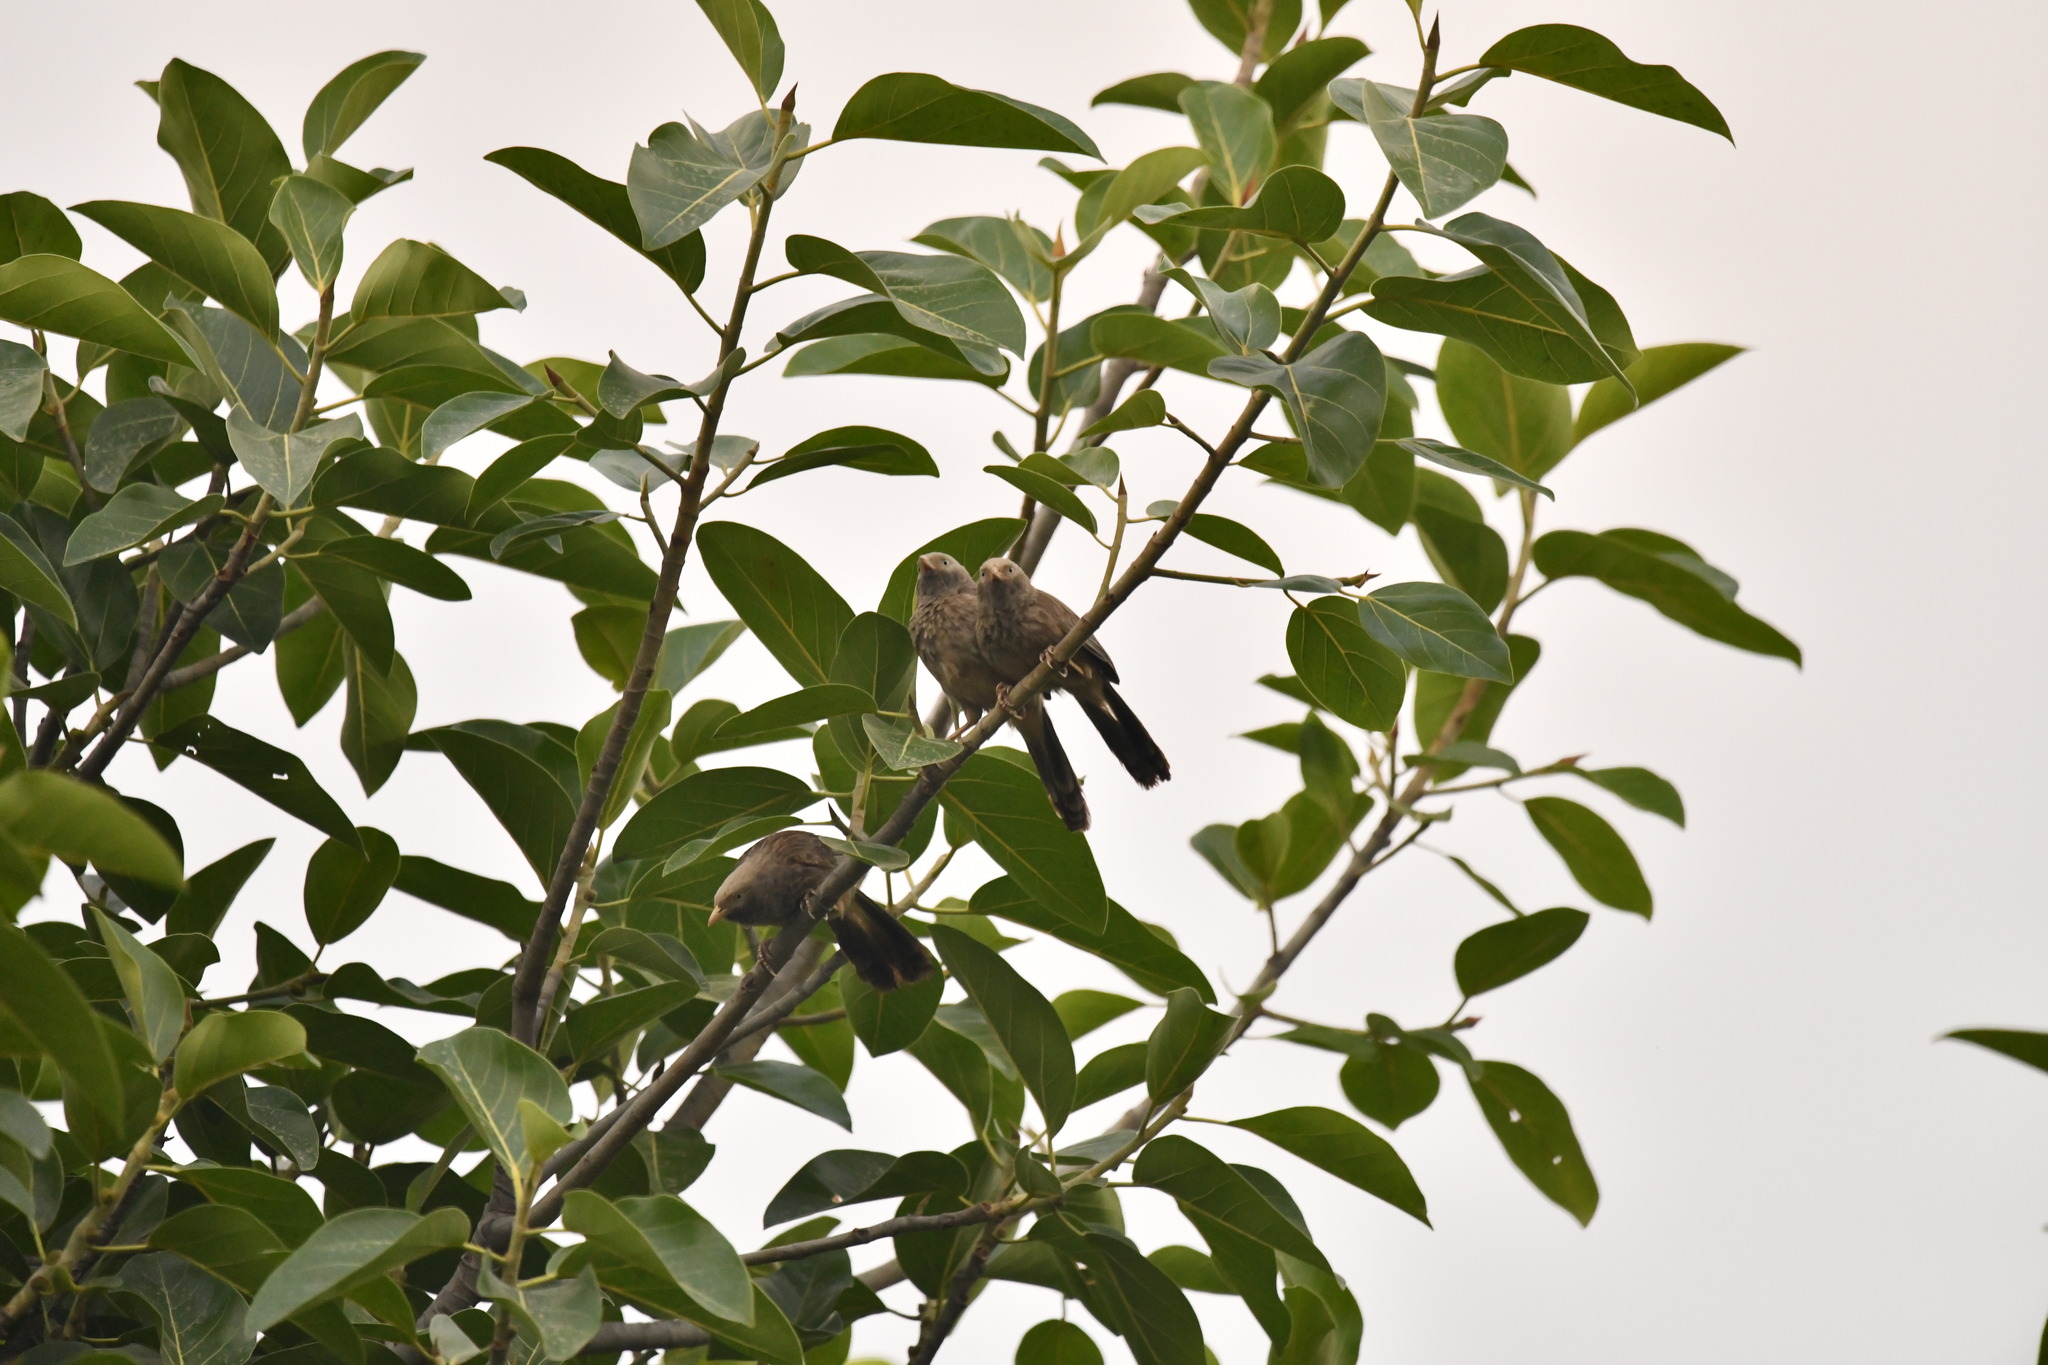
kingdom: Animalia
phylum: Chordata
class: Aves
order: Passeriformes
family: Leiothrichidae
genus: Turdoides
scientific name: Turdoides affinis
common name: Yellow-billed babbler
